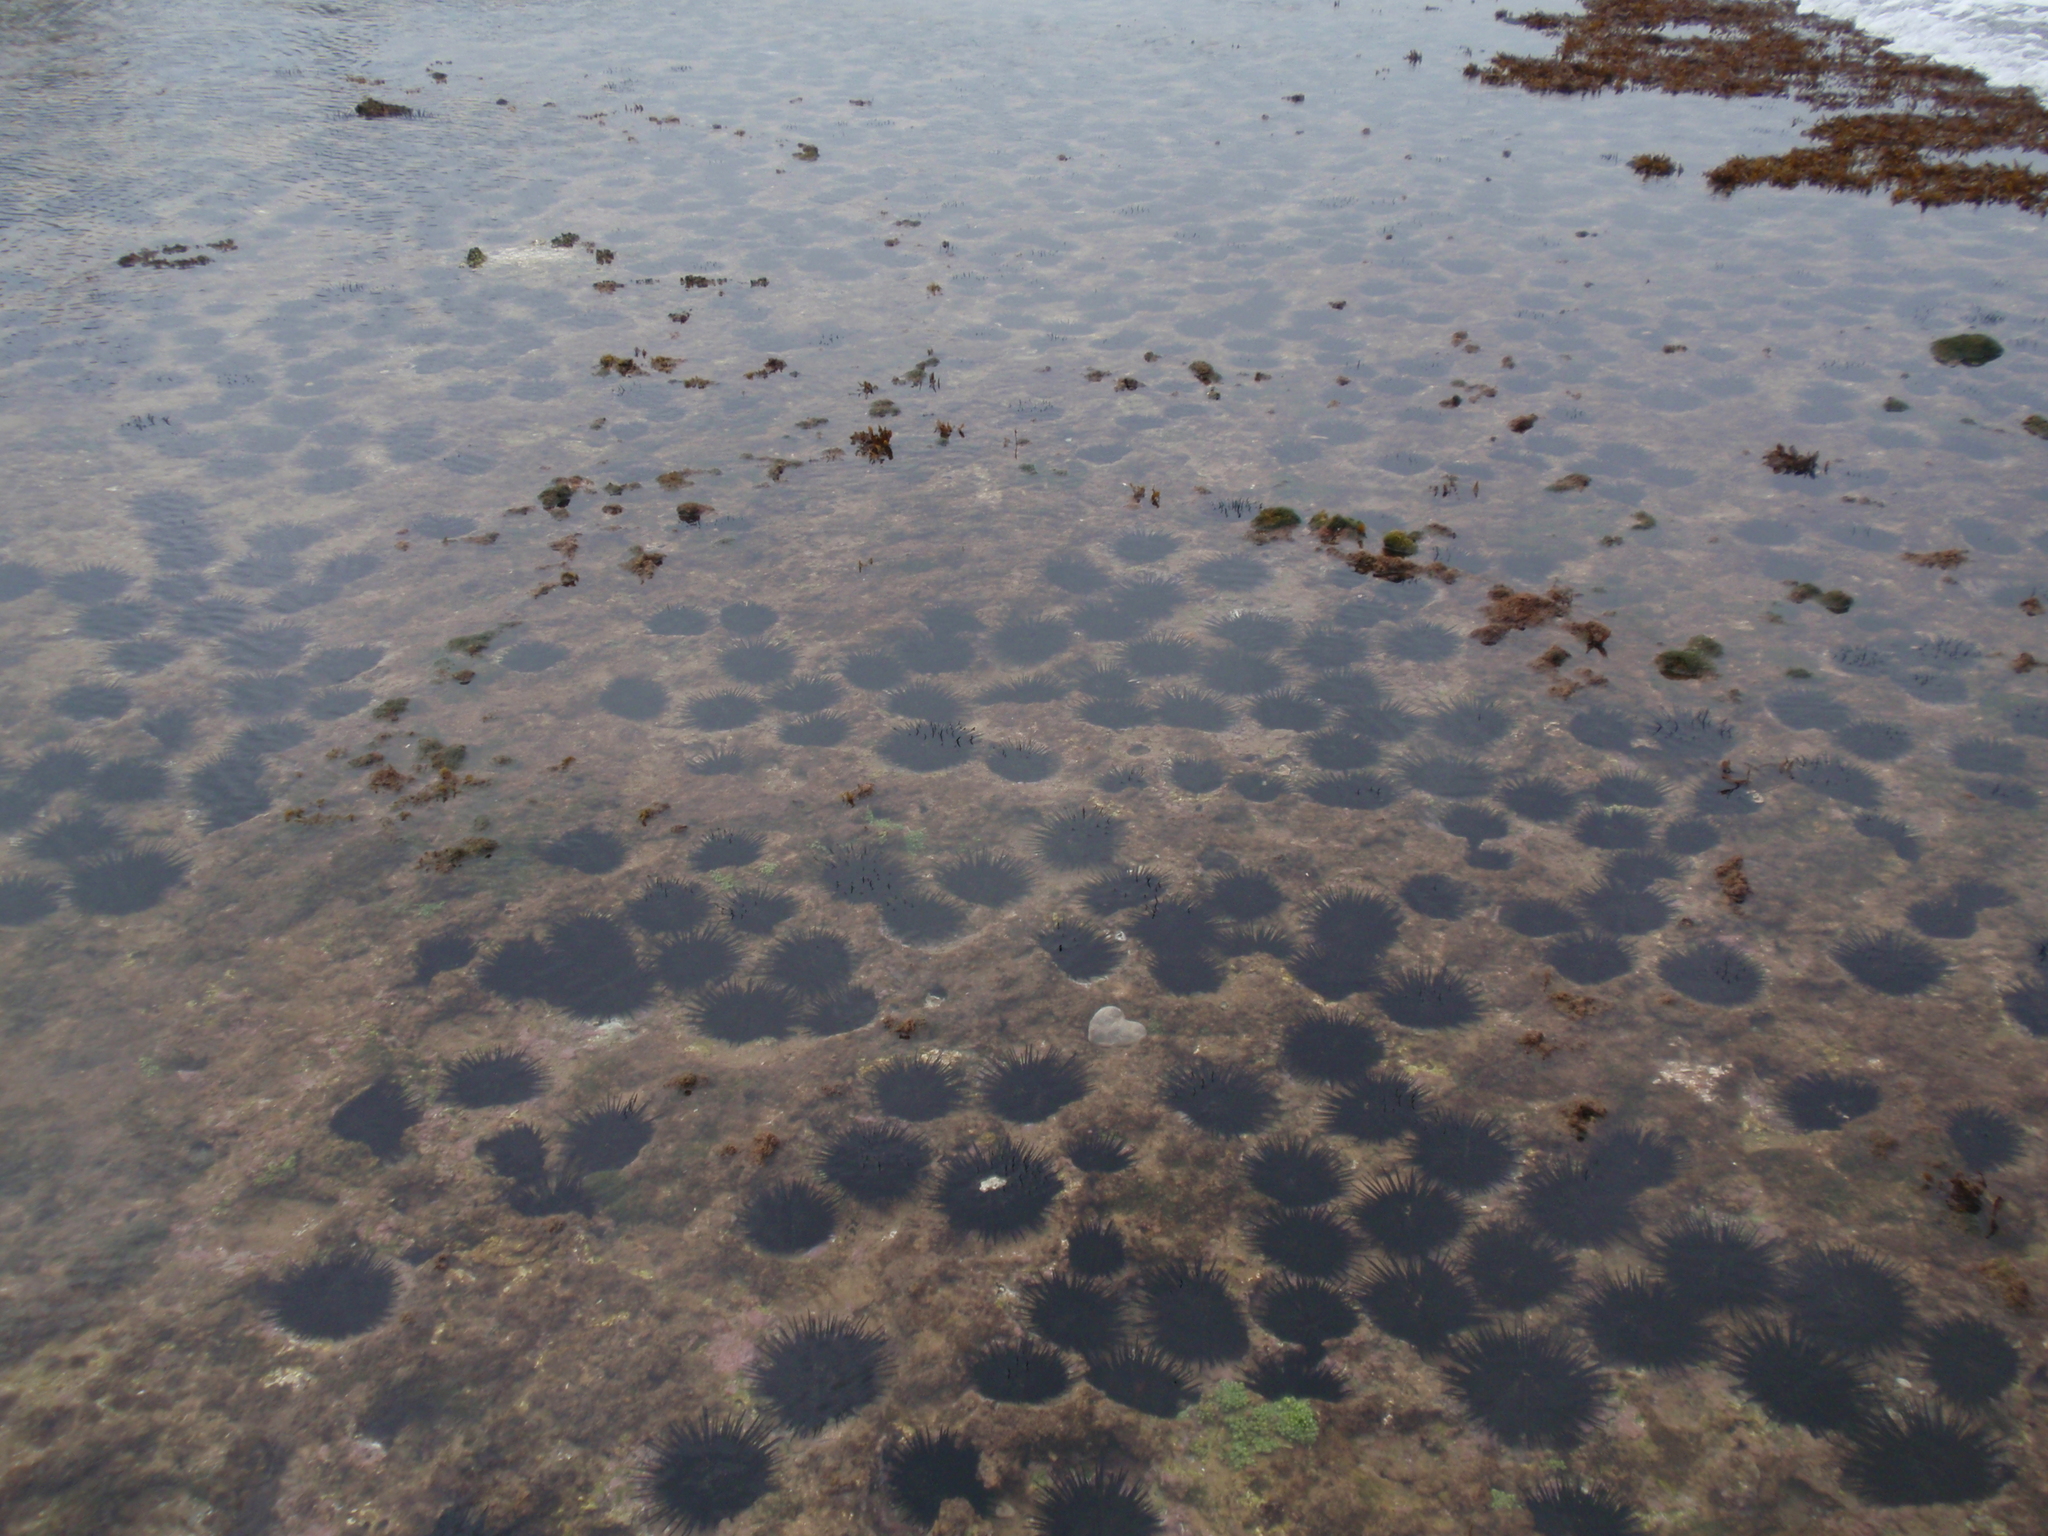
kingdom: Animalia
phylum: Echinodermata
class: Echinoidea
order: Stomopneustoida
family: Stomopneustidae
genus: Stomopneustes
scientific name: Stomopneustes variolaris
